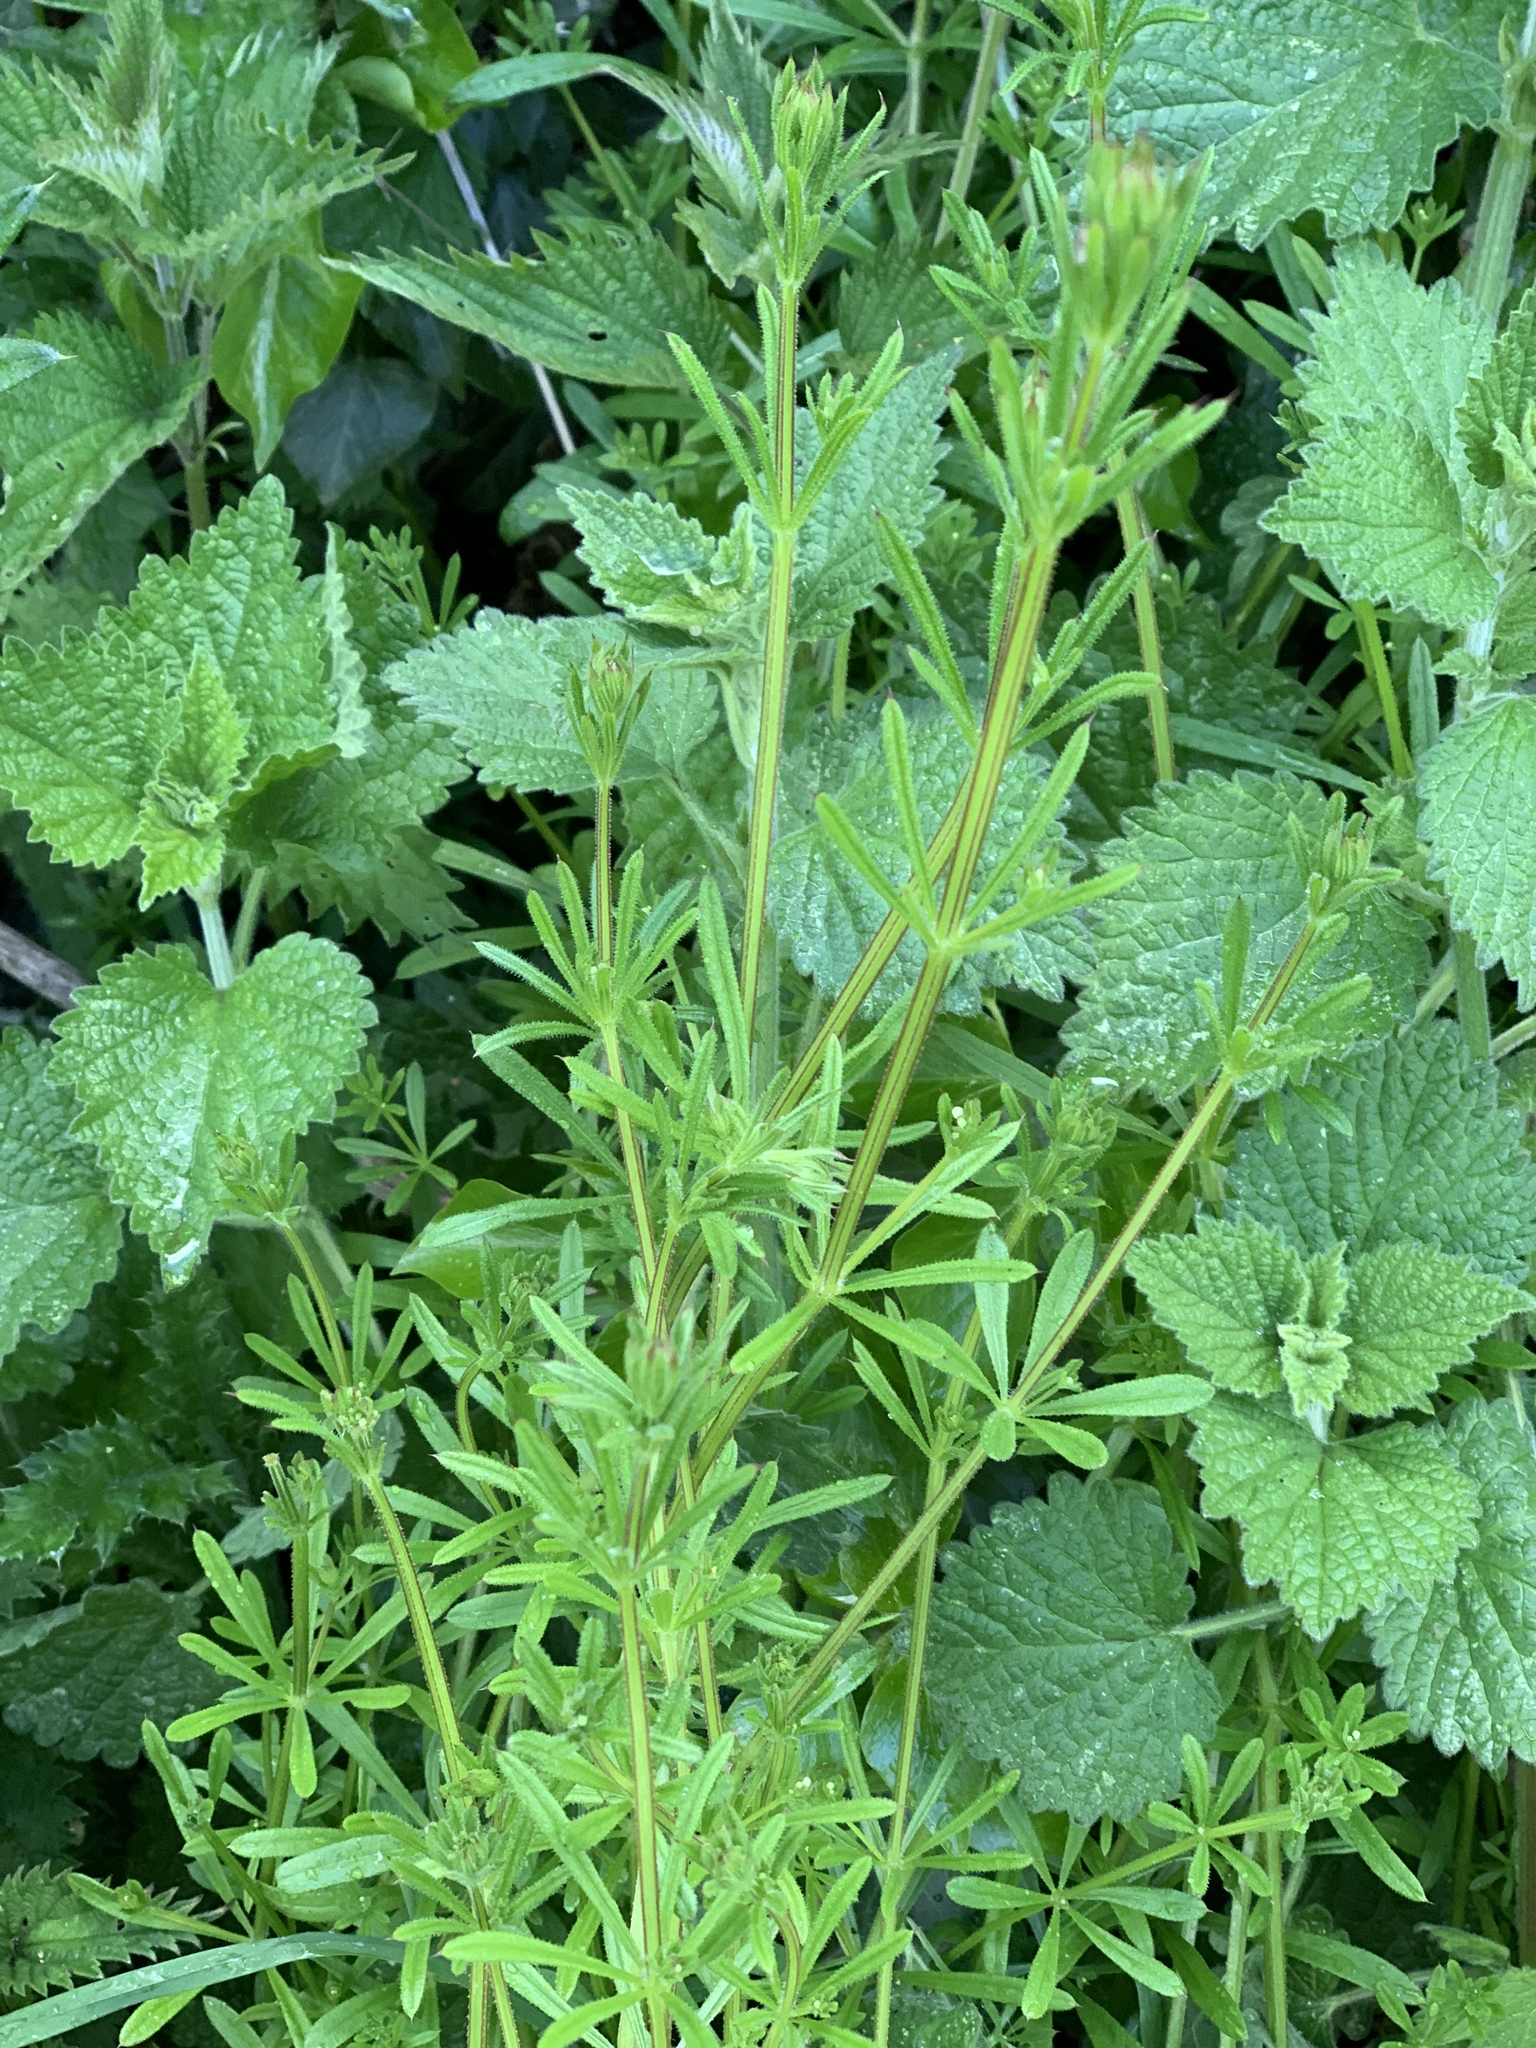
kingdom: Plantae
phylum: Tracheophyta
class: Magnoliopsida
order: Gentianales
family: Rubiaceae
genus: Galium
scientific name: Galium aparine
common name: Cleavers
